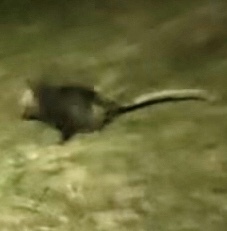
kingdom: Animalia
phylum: Chordata
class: Mammalia
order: Didelphimorphia
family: Didelphidae
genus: Didelphis
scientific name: Didelphis virginiana
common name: Virginia opossum
